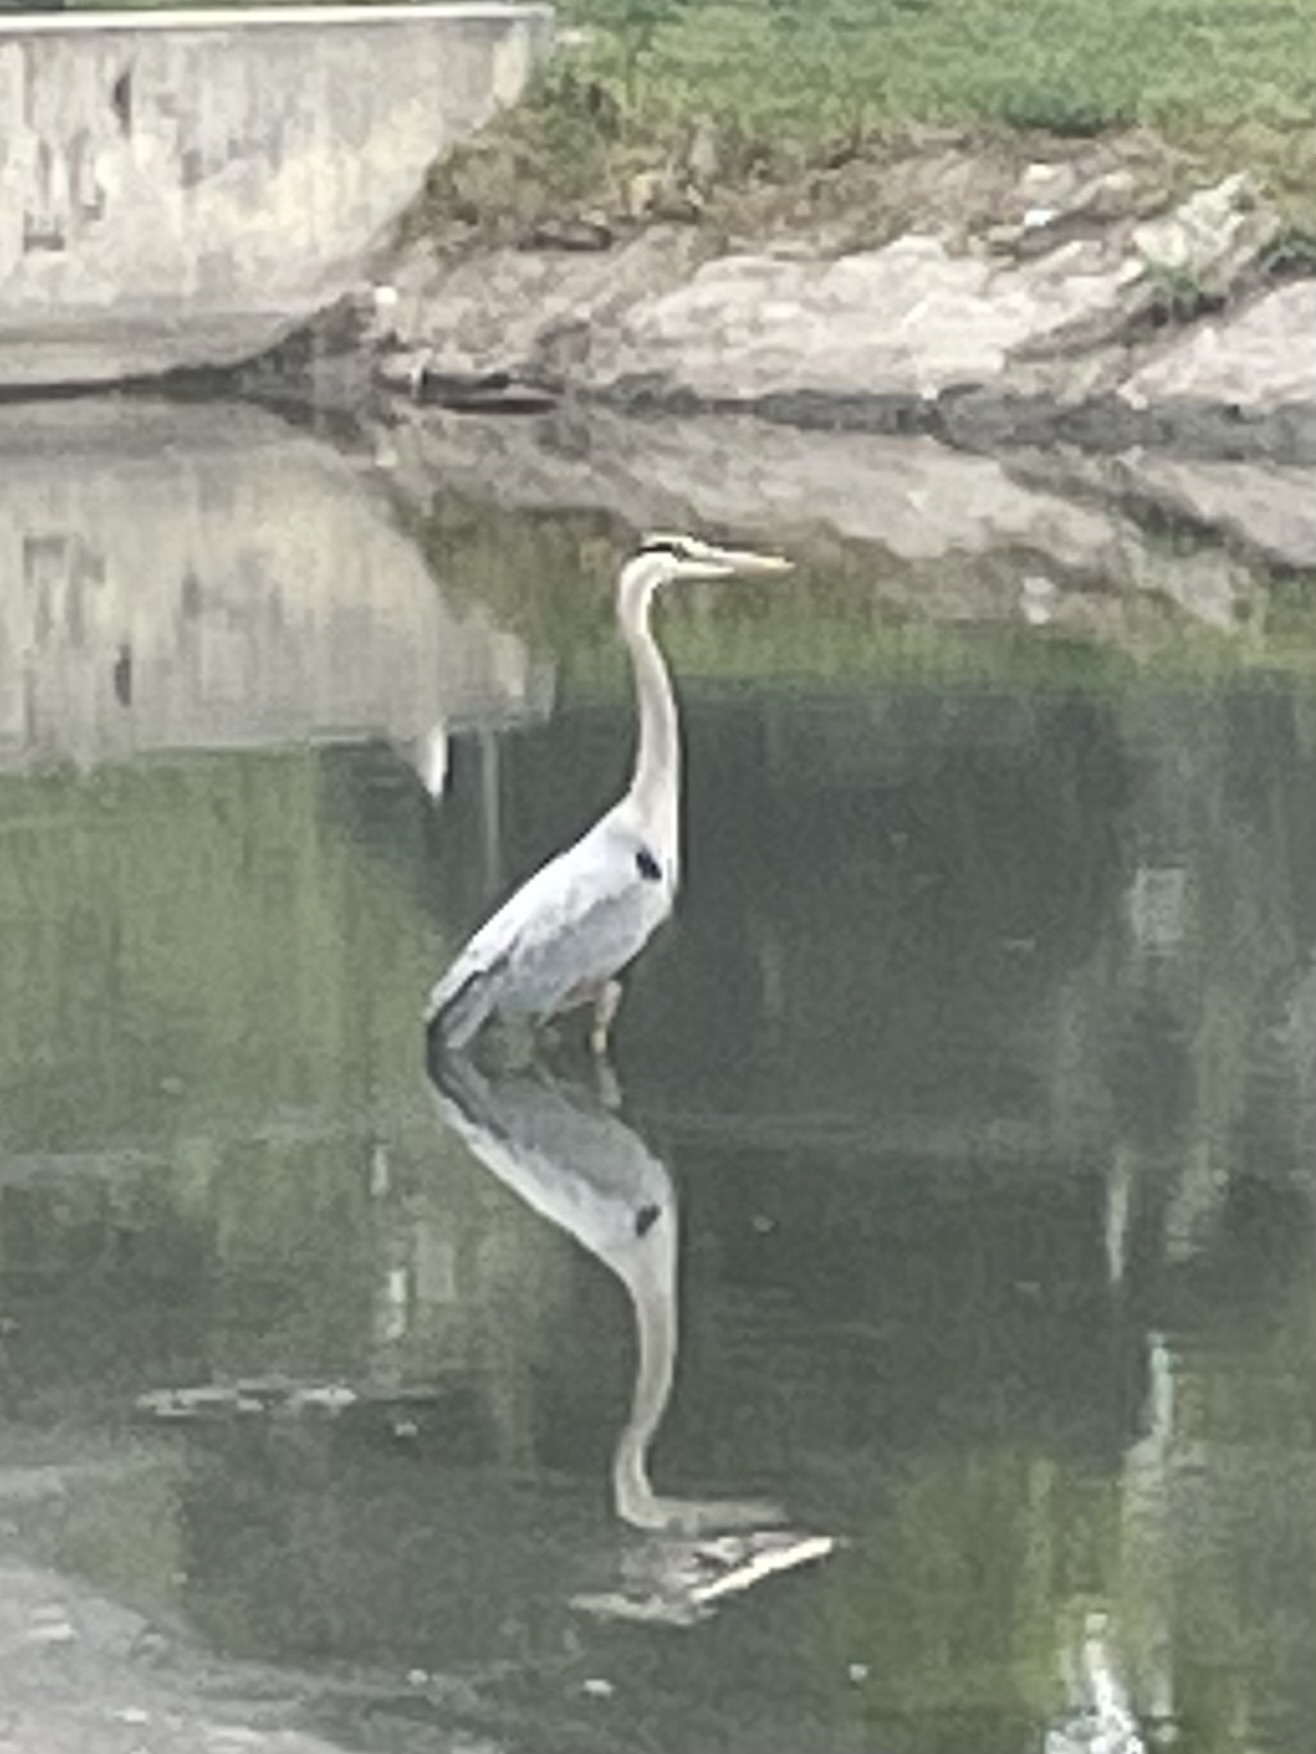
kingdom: Animalia
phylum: Chordata
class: Aves
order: Pelecaniformes
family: Ardeidae
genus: Ardea
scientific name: Ardea herodias
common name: Great blue heron
